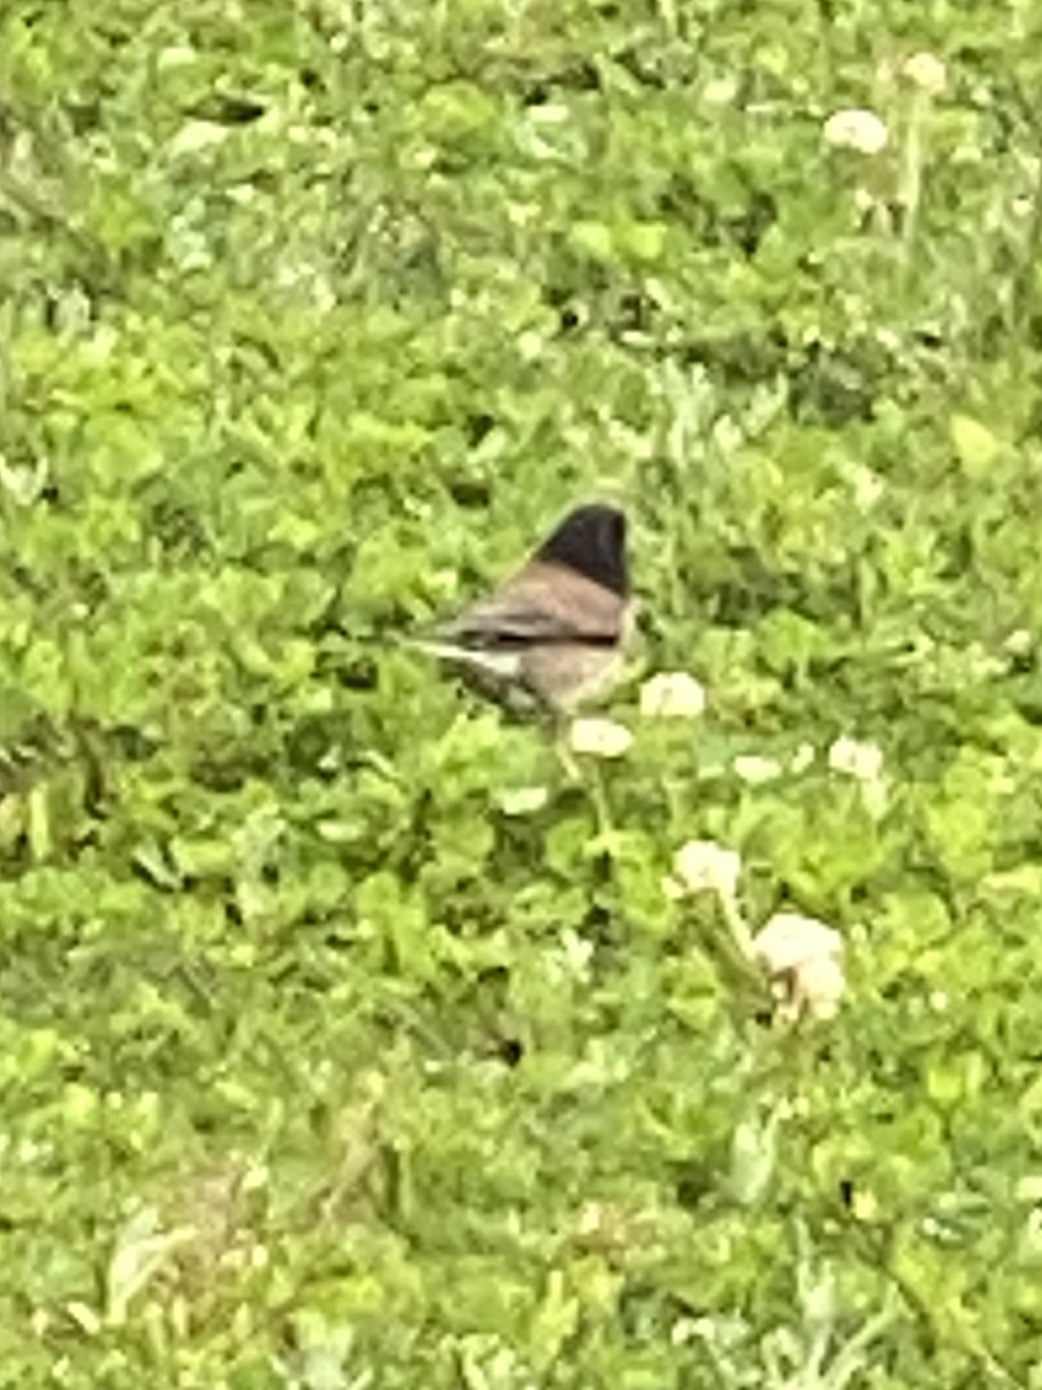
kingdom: Animalia
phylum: Chordata
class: Aves
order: Passeriformes
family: Passerellidae
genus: Junco
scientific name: Junco hyemalis
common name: Dark-eyed junco
